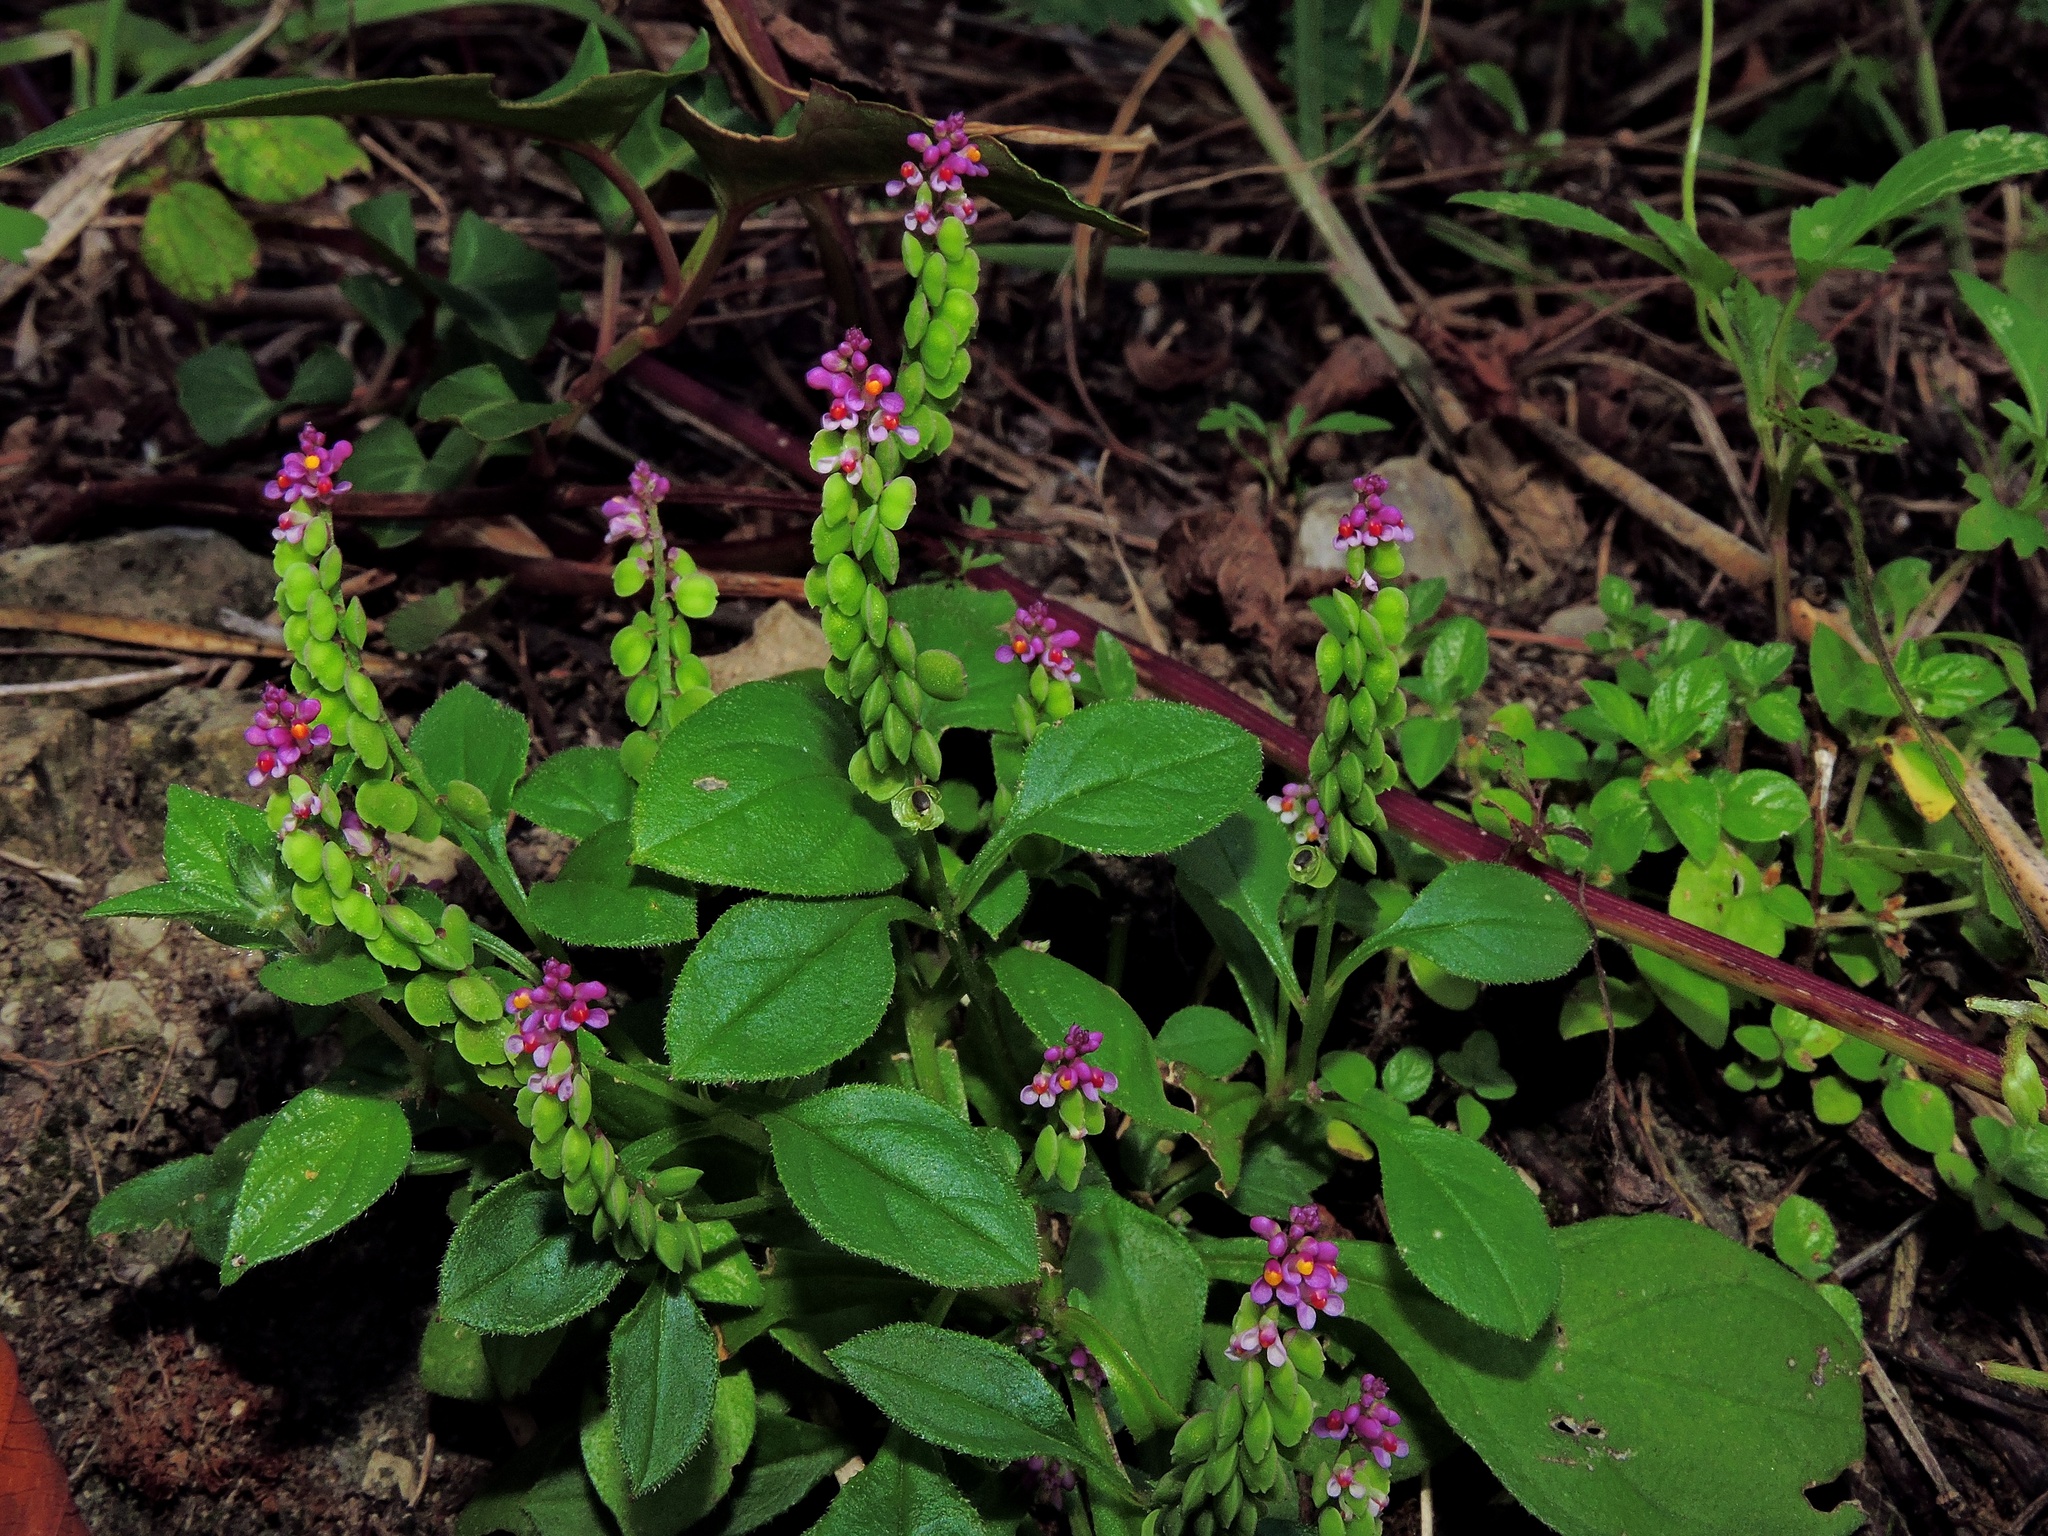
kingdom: Plantae
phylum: Tracheophyta
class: Magnoliopsida
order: Fabales
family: Polygalaceae
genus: Polygala
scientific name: Polygala tatarinowii
